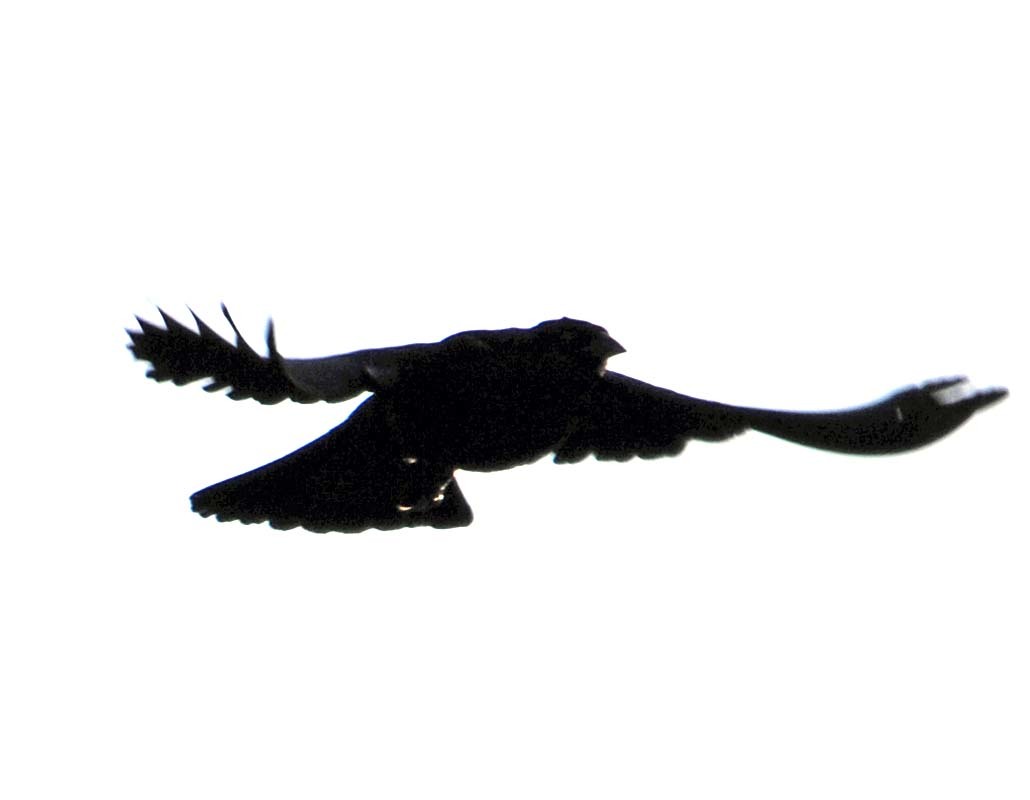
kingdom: Animalia
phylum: Chordata
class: Aves
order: Passeriformes
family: Icteridae
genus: Molothrus
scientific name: Molothrus aeneus
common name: Bronzed cowbird
